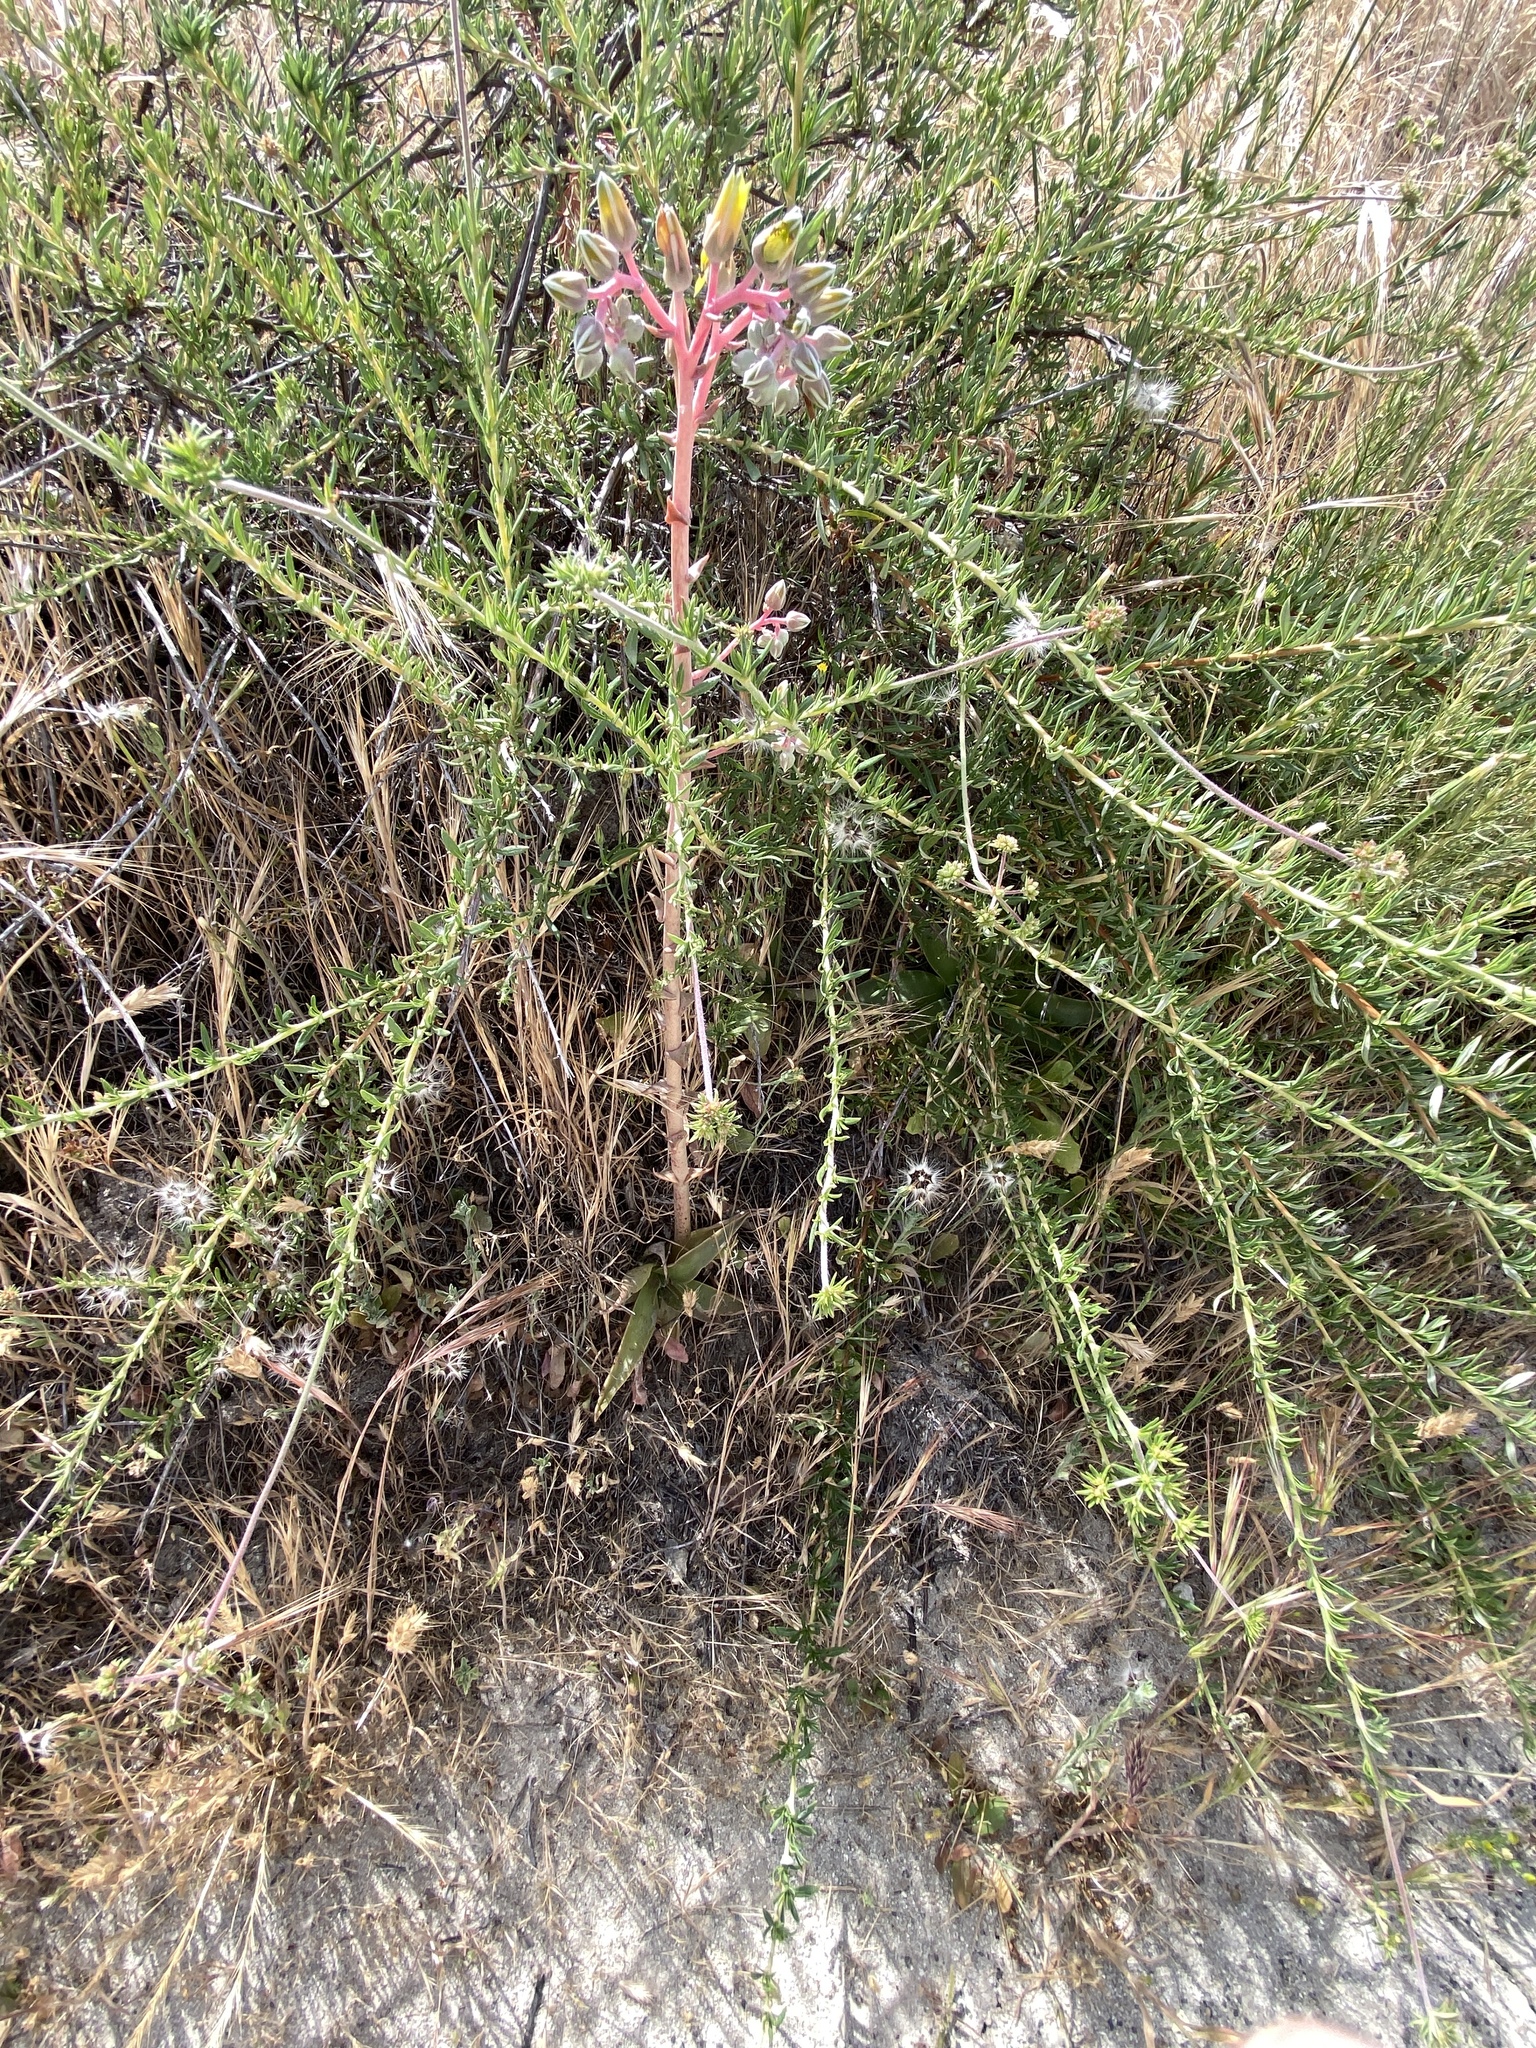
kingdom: Plantae
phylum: Tracheophyta
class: Magnoliopsida
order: Saxifragales
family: Crassulaceae
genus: Dudleya
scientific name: Dudleya lanceolata
